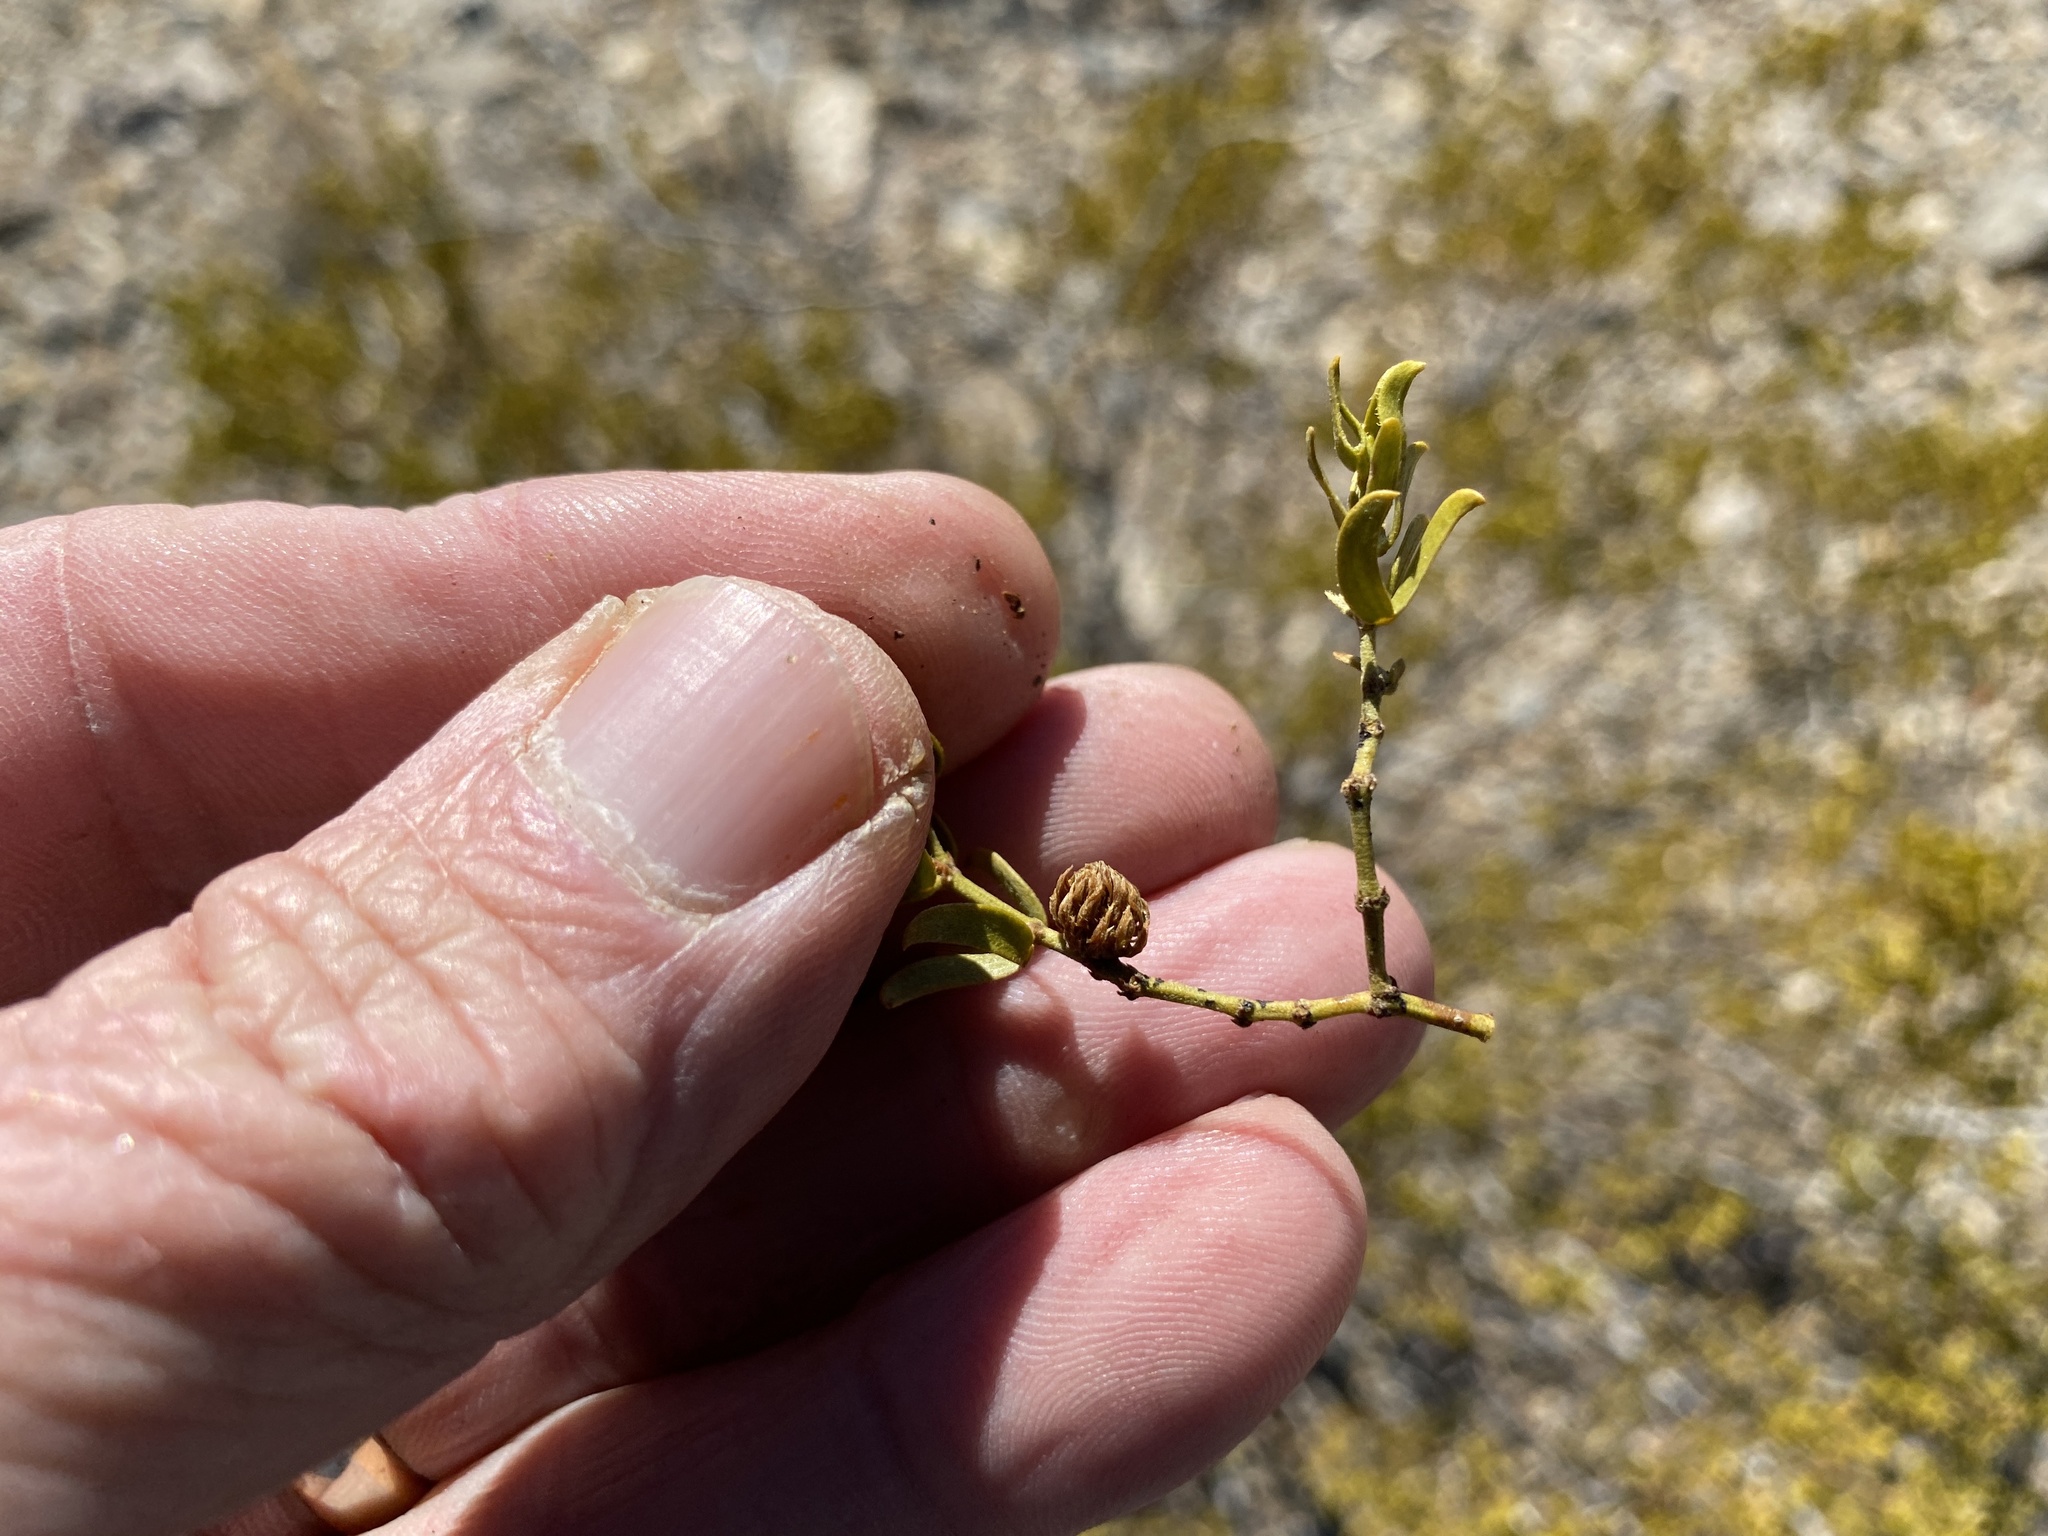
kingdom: Animalia
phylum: Arthropoda
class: Insecta
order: Diptera
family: Cecidomyiidae
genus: Asphondylia
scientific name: Asphondylia resinosa
